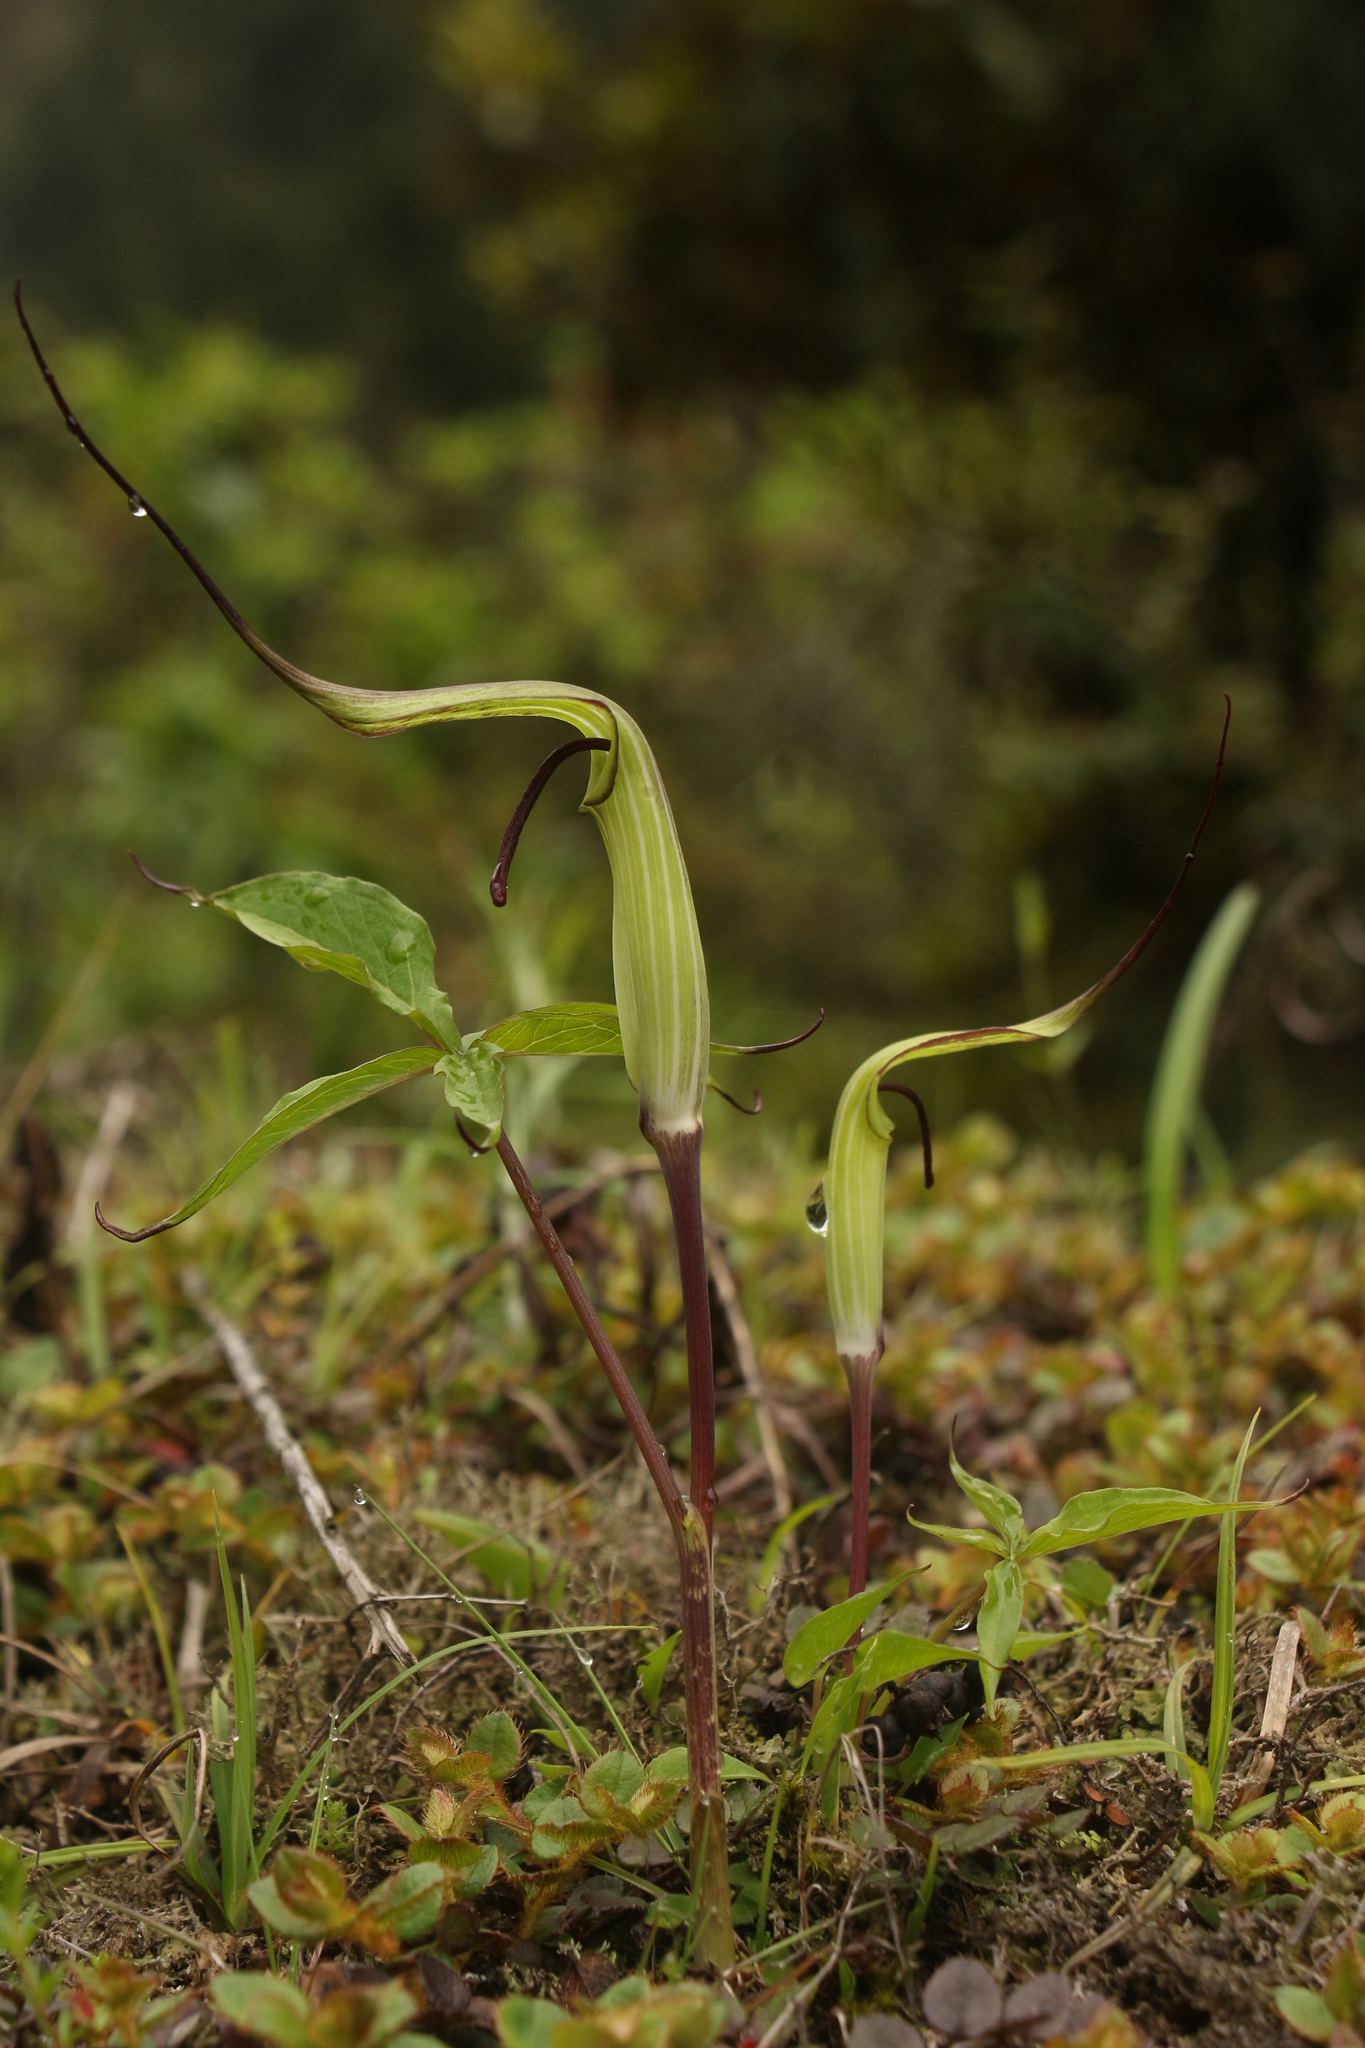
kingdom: Plantae
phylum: Tracheophyta
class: Liliopsida
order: Alismatales
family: Araceae
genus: Arisaema
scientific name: Arisaema jacquemontii
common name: Jacquemont's cobra-lily
